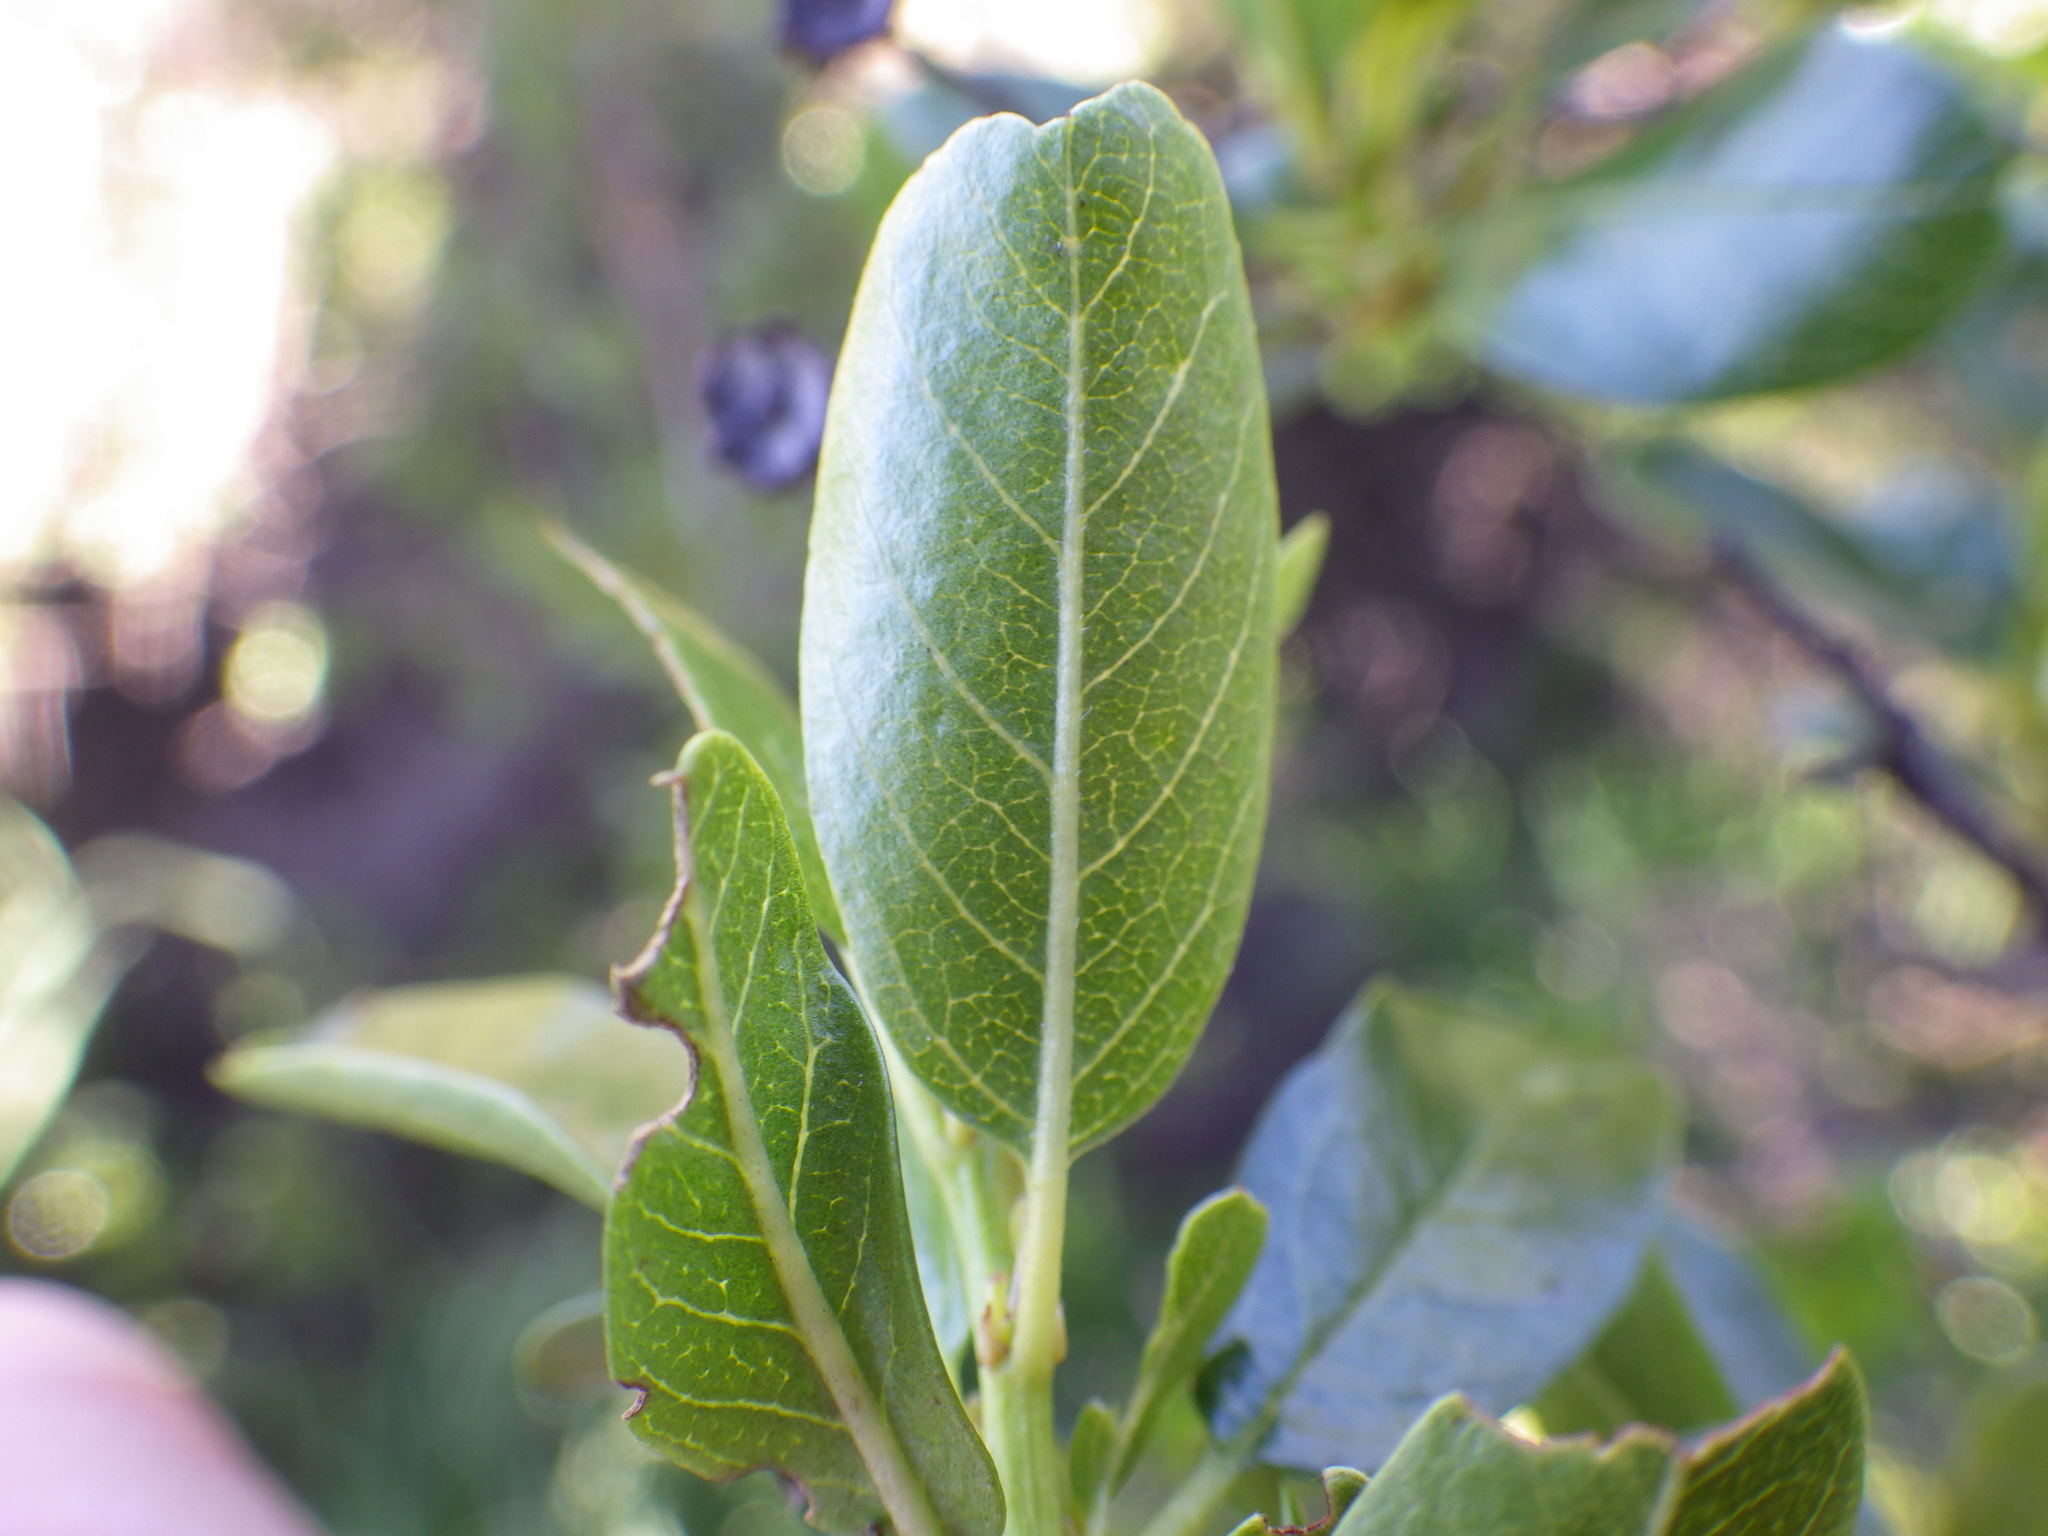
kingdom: Plantae
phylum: Tracheophyta
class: Magnoliopsida
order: Rosales
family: Rhamnaceae
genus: Ceanothus
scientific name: Ceanothus spinosus
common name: Greenbark whitethorn
